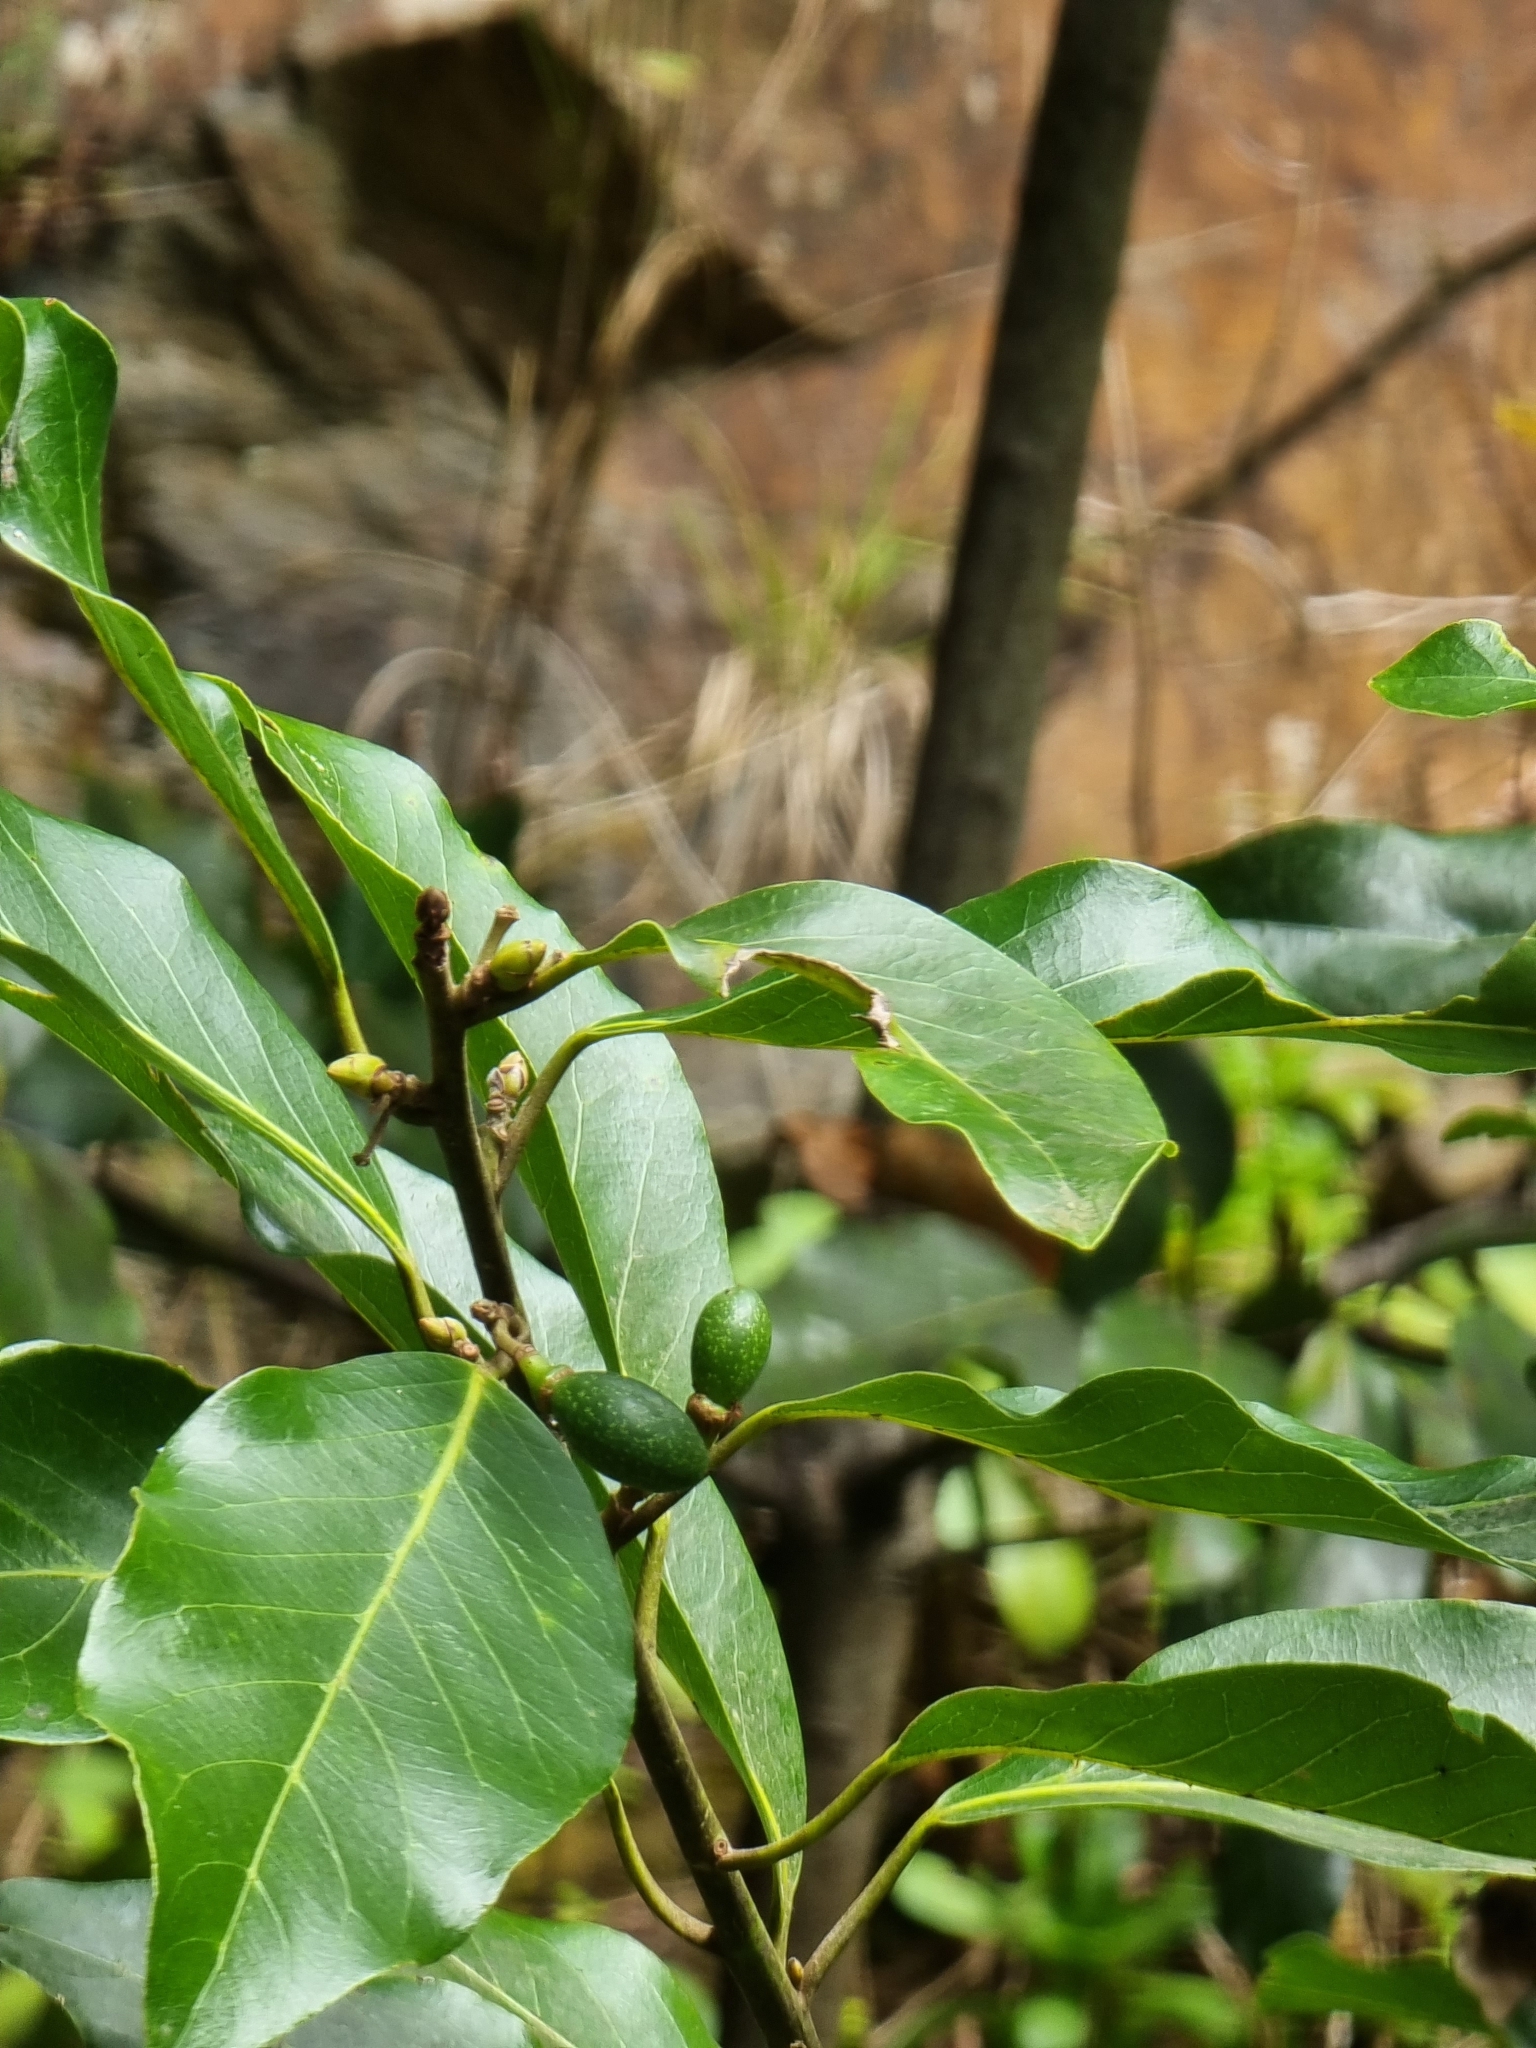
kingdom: Plantae
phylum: Tracheophyta
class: Magnoliopsida
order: Laurales
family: Lauraceae
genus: Laurus
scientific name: Laurus novocanariensis
